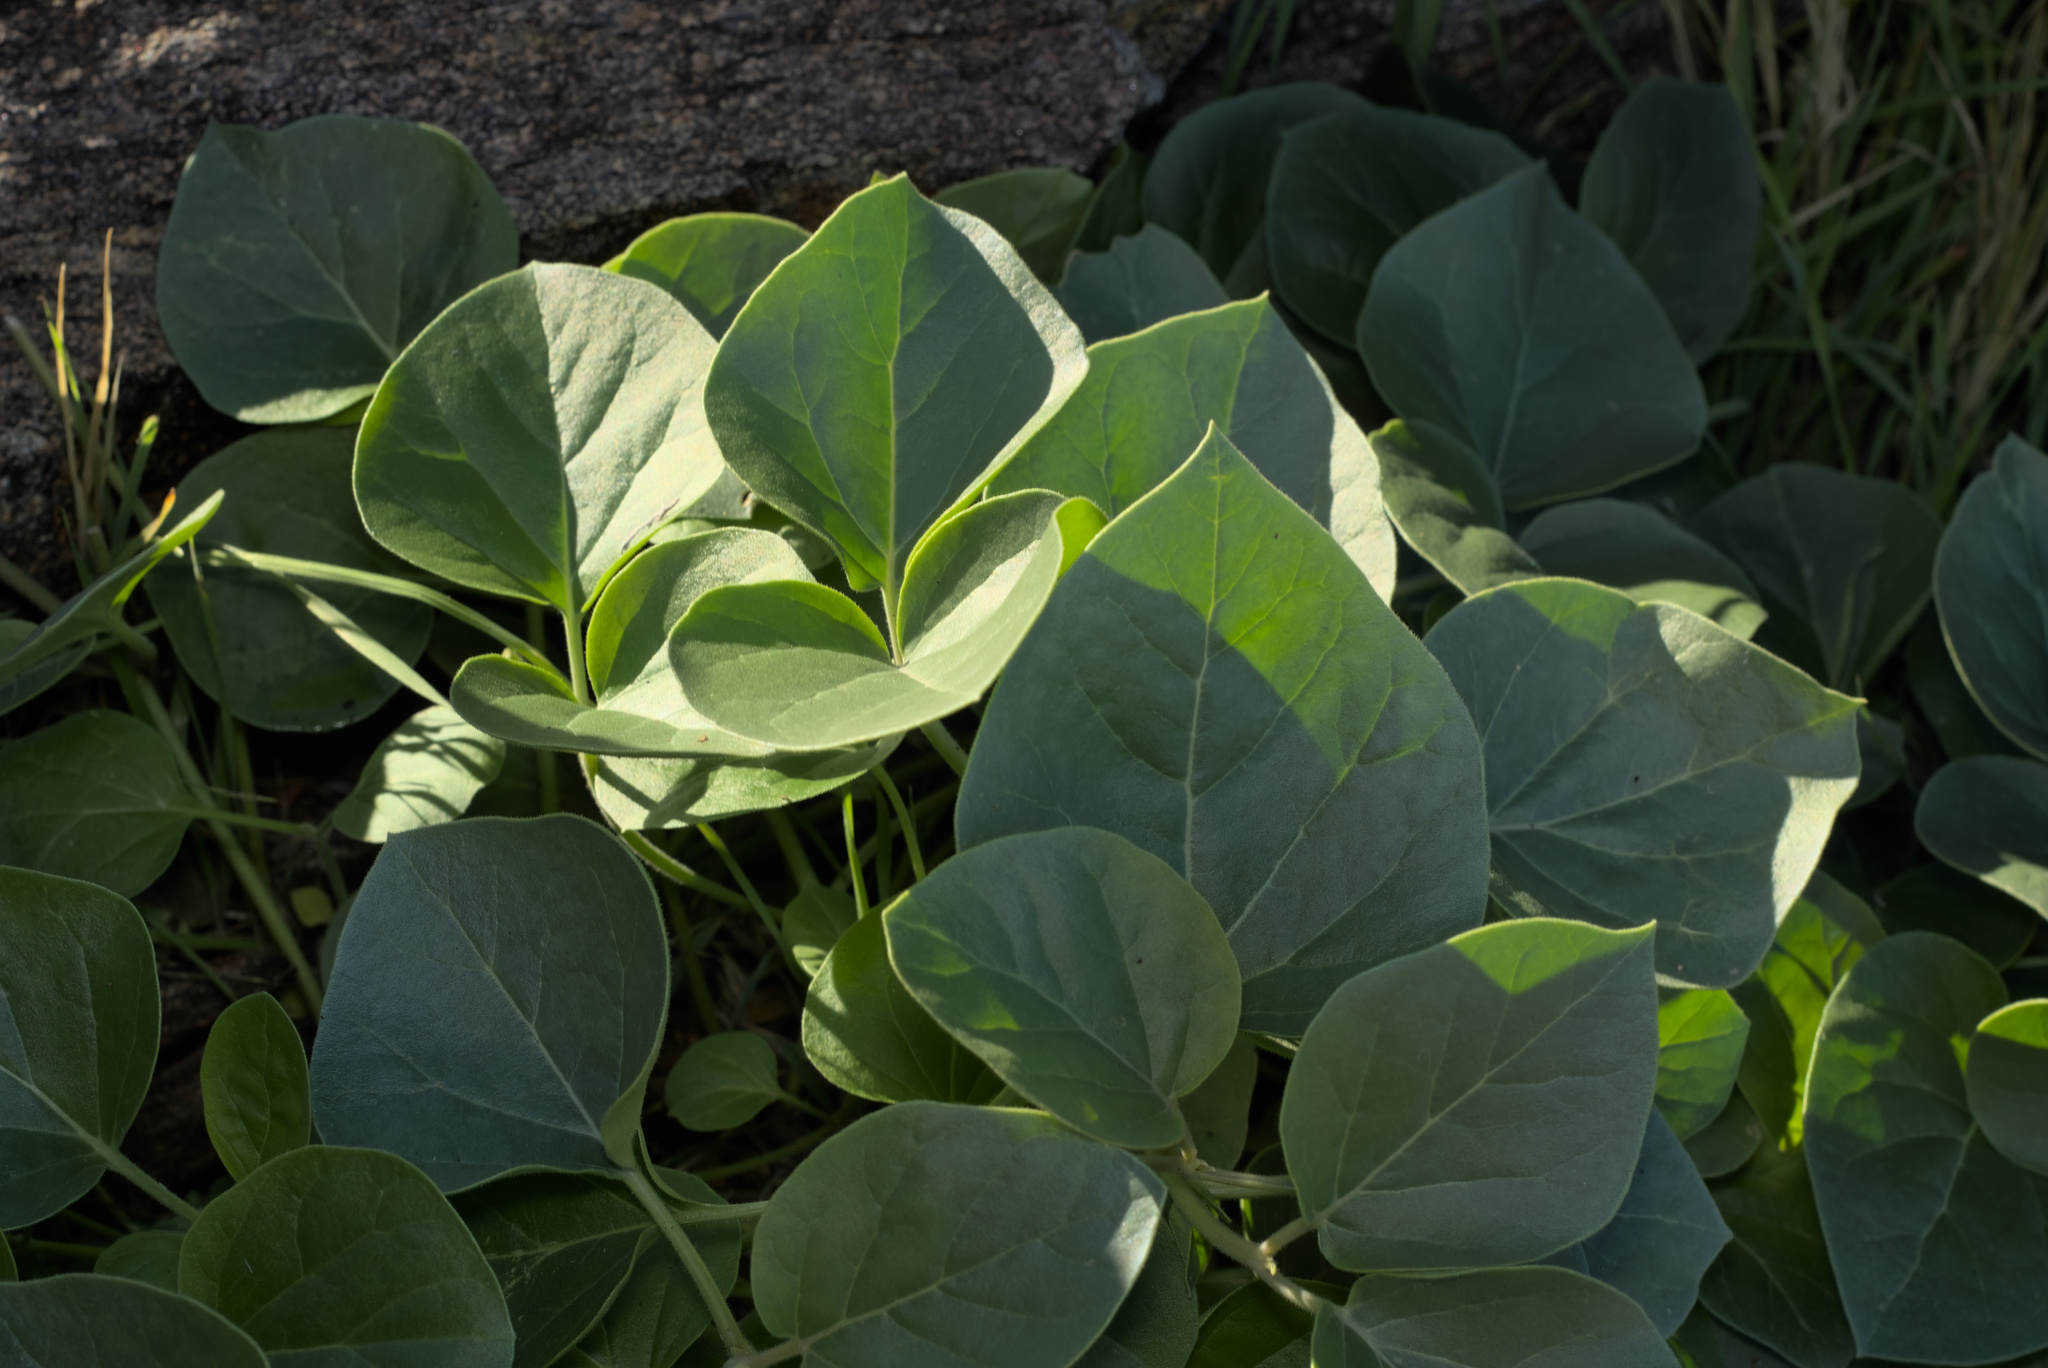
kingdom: Plantae
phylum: Tracheophyta
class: Magnoliopsida
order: Asterales
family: Asteraceae
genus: Agnorhiza
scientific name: Agnorhiza ovata
